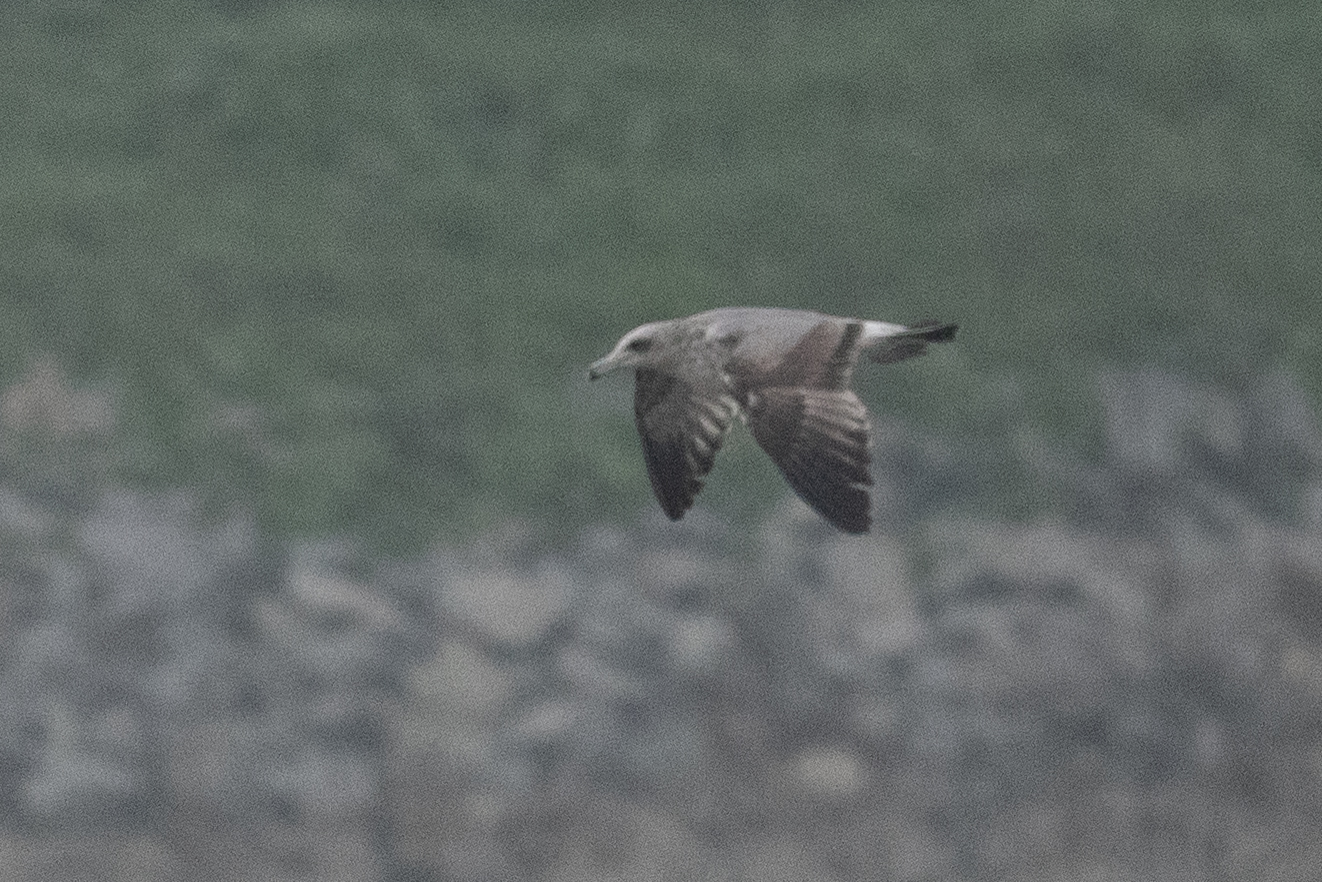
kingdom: Animalia
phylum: Chordata
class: Aves
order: Charadriiformes
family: Laridae
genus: Larus
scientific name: Larus californicus
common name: California gull
